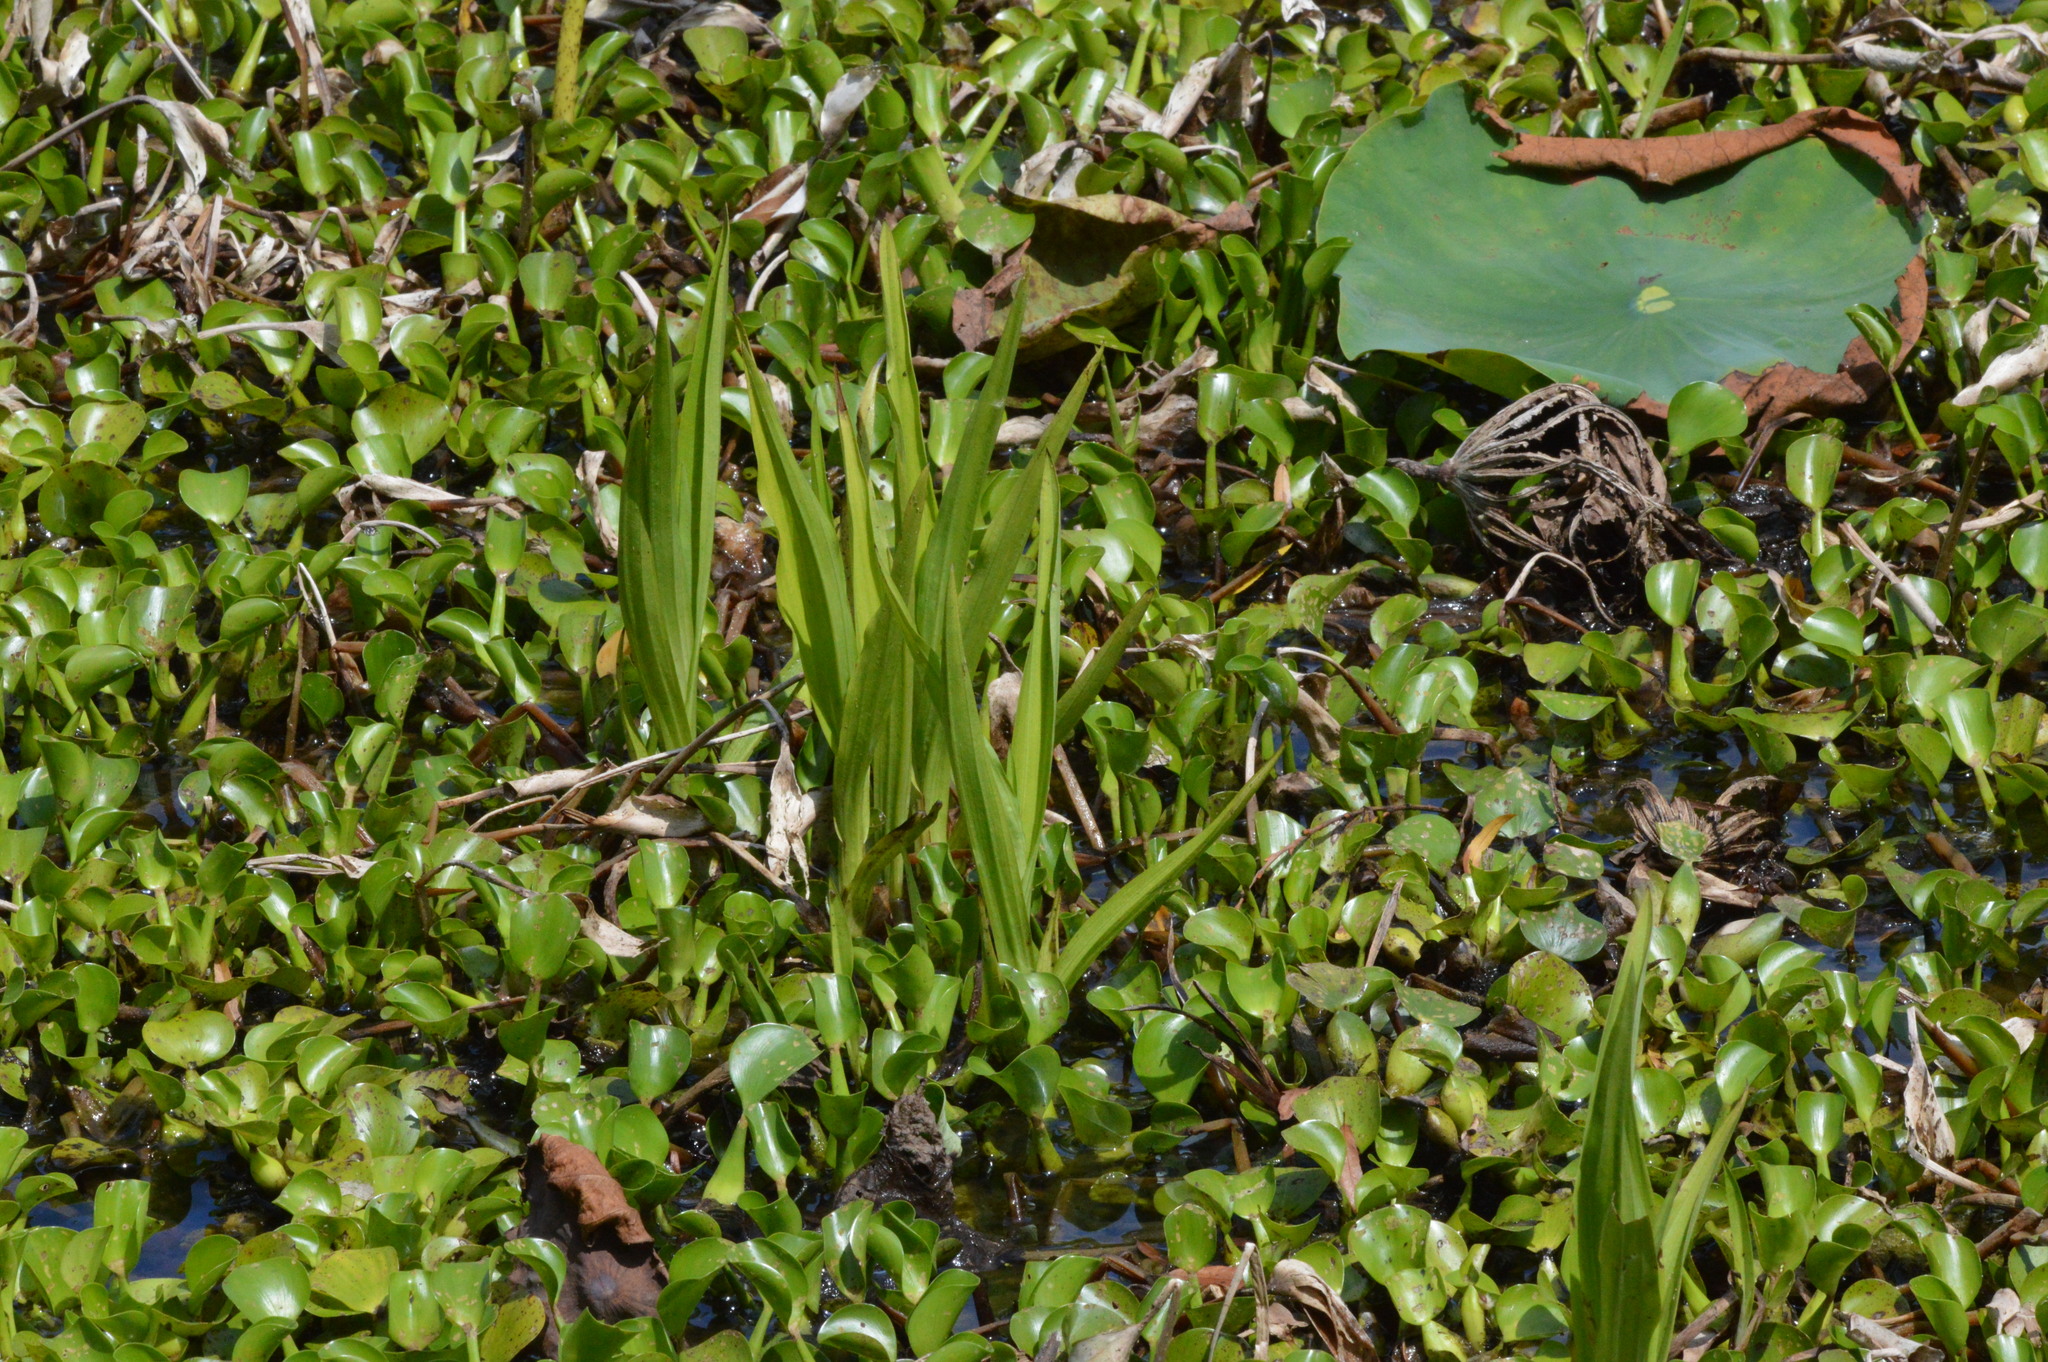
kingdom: Plantae
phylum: Tracheophyta
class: Liliopsida
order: Asparagales
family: Orchidaceae
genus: Habenaria
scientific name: Habenaria repens
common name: Water orchid
